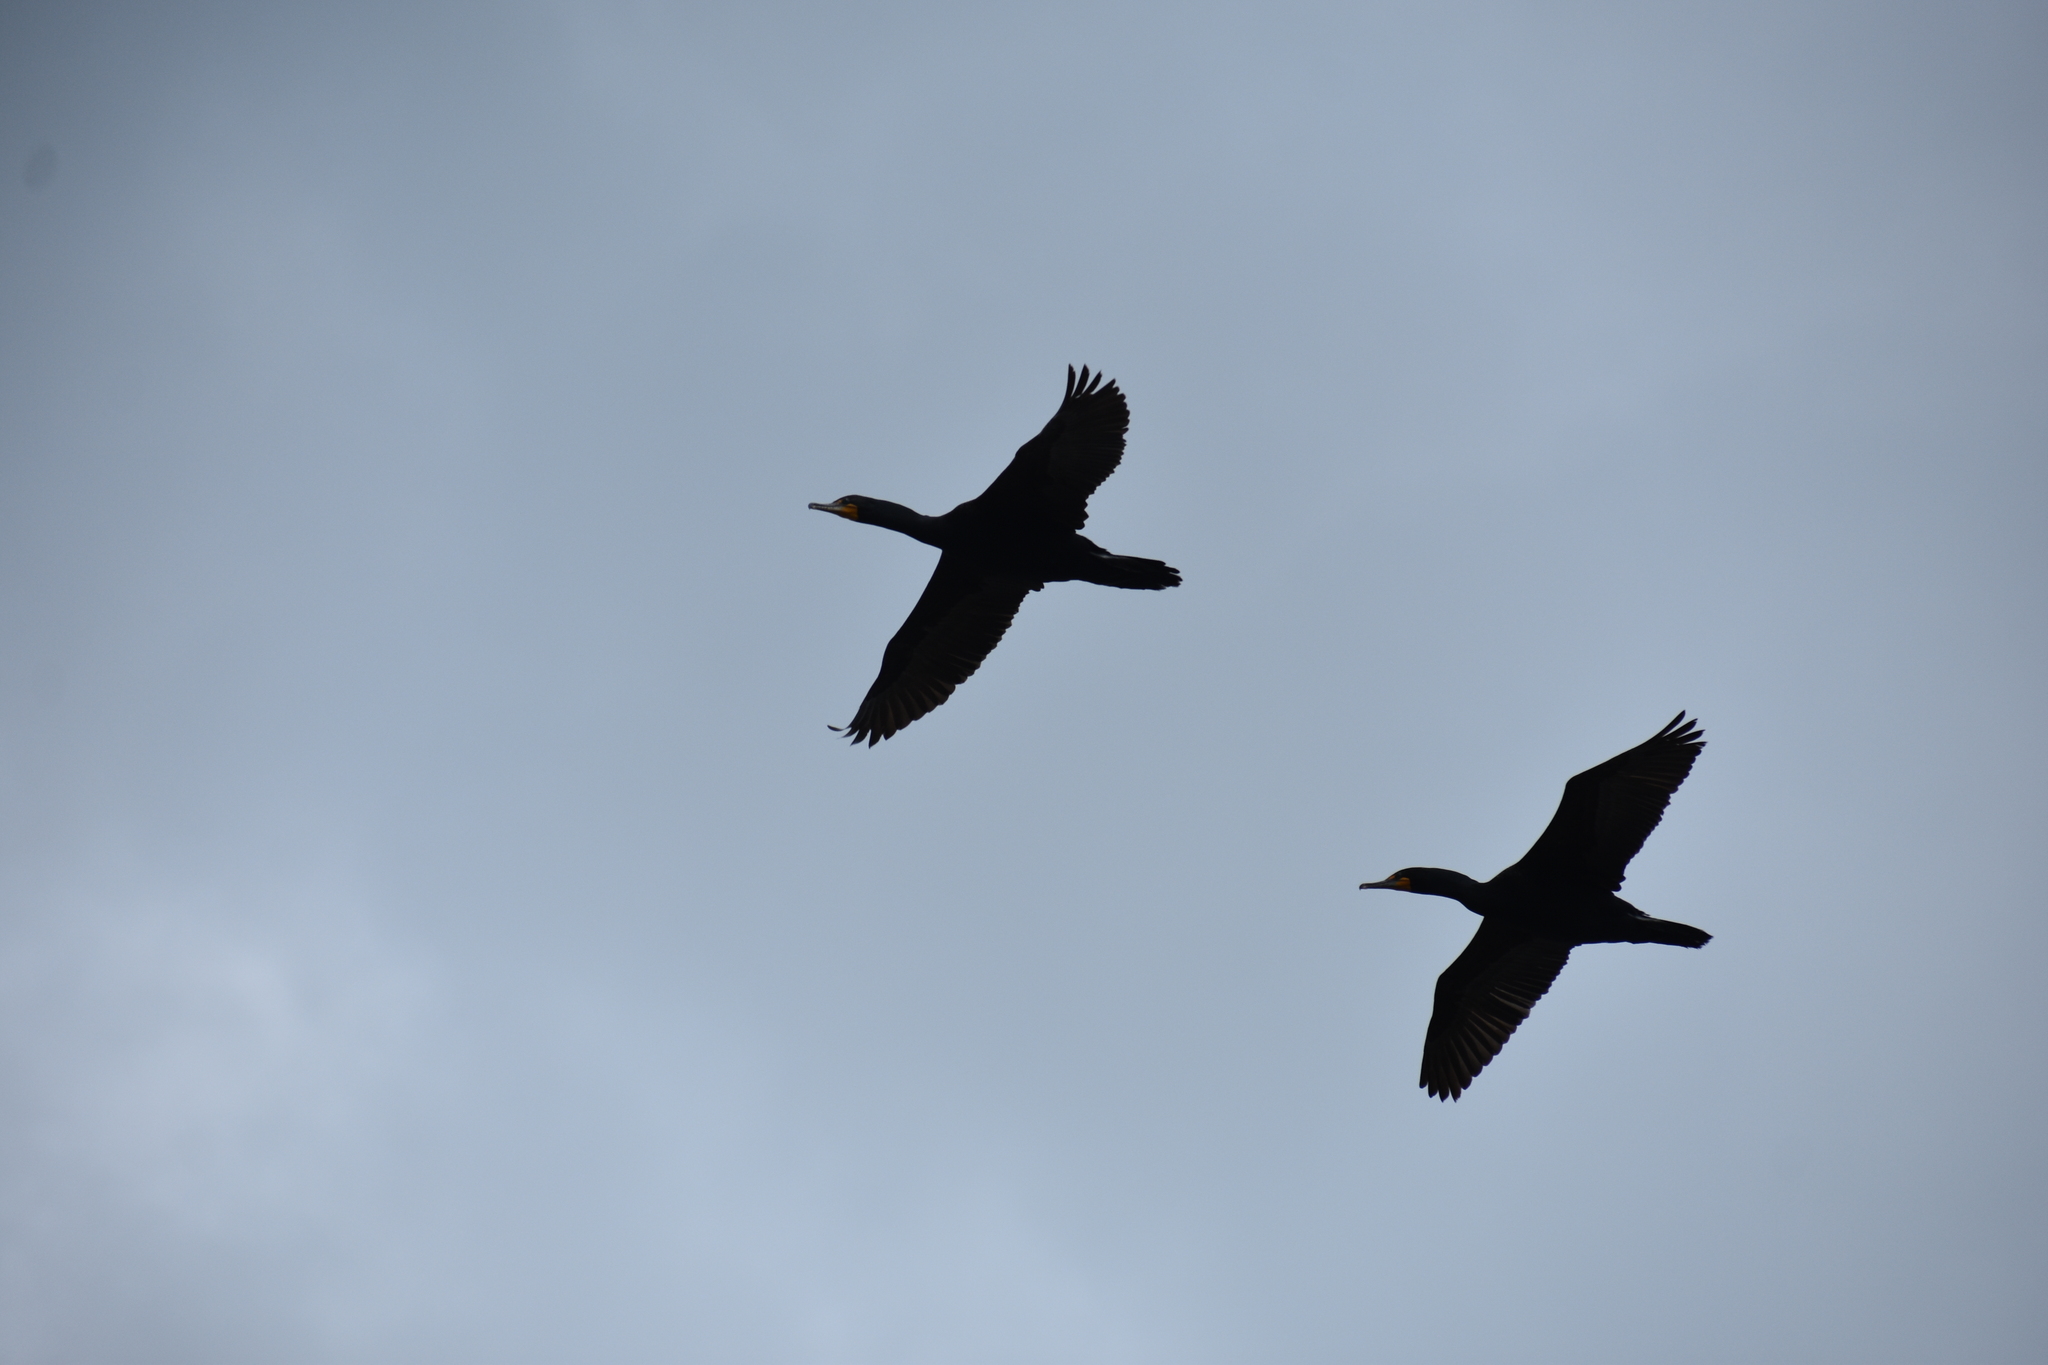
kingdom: Animalia
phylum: Chordata
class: Aves
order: Suliformes
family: Phalacrocoracidae
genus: Phalacrocorax
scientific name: Phalacrocorax auritus
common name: Double-crested cormorant
